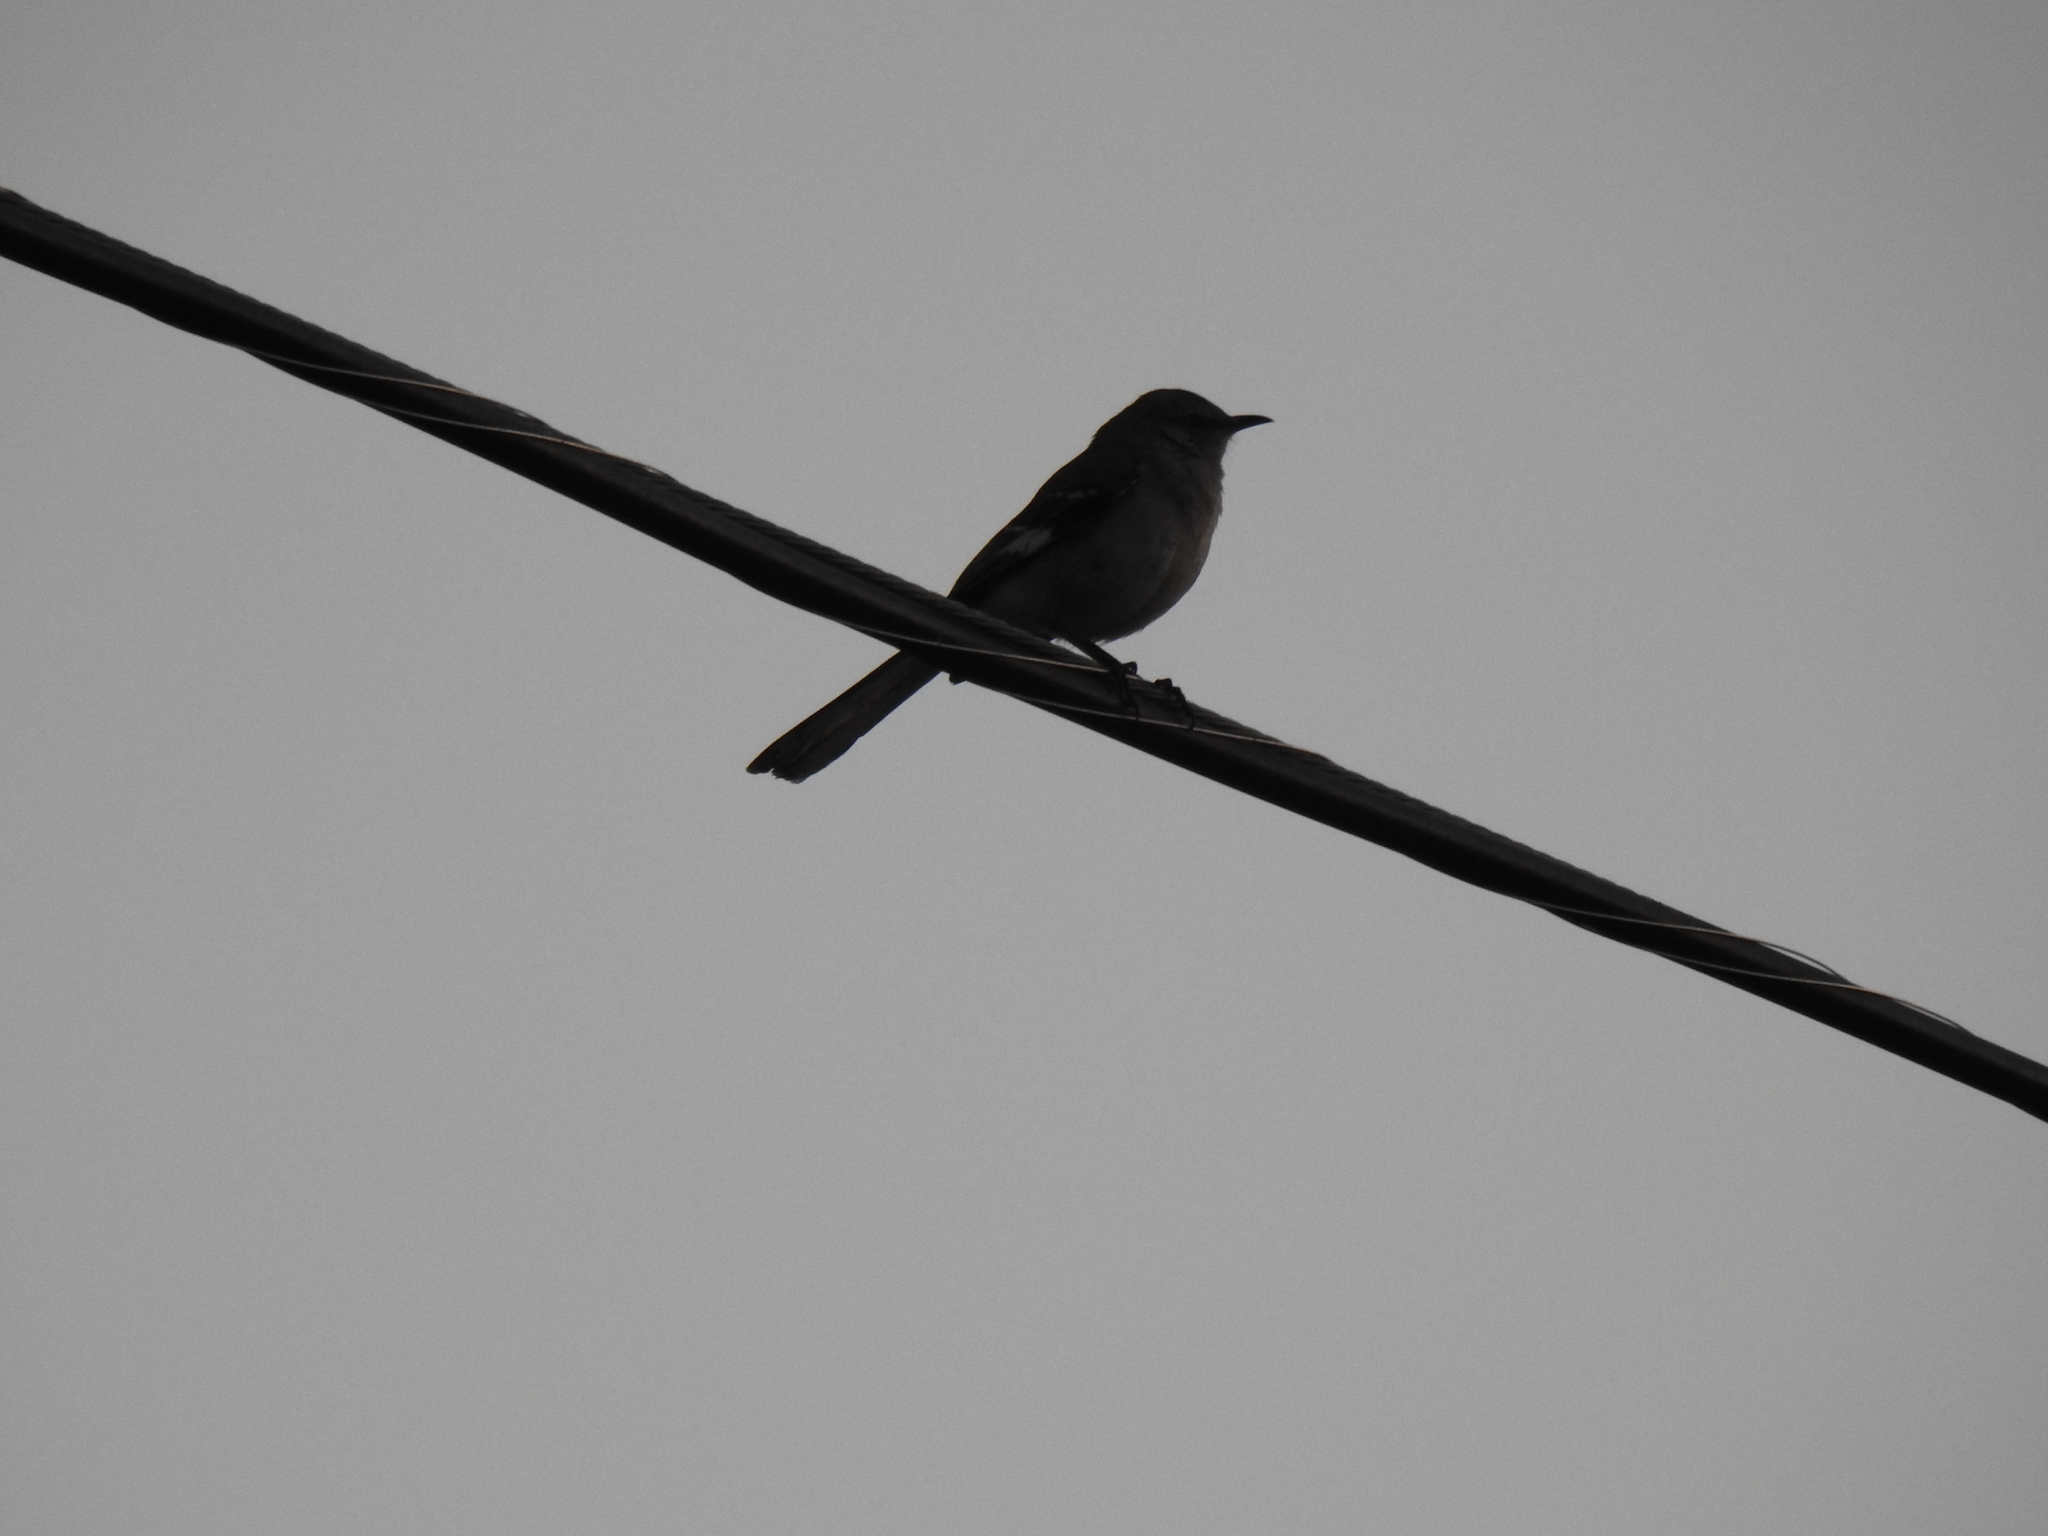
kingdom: Animalia
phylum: Chordata
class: Aves
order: Passeriformes
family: Mimidae
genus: Mimus
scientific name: Mimus polyglottos
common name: Northern mockingbird
